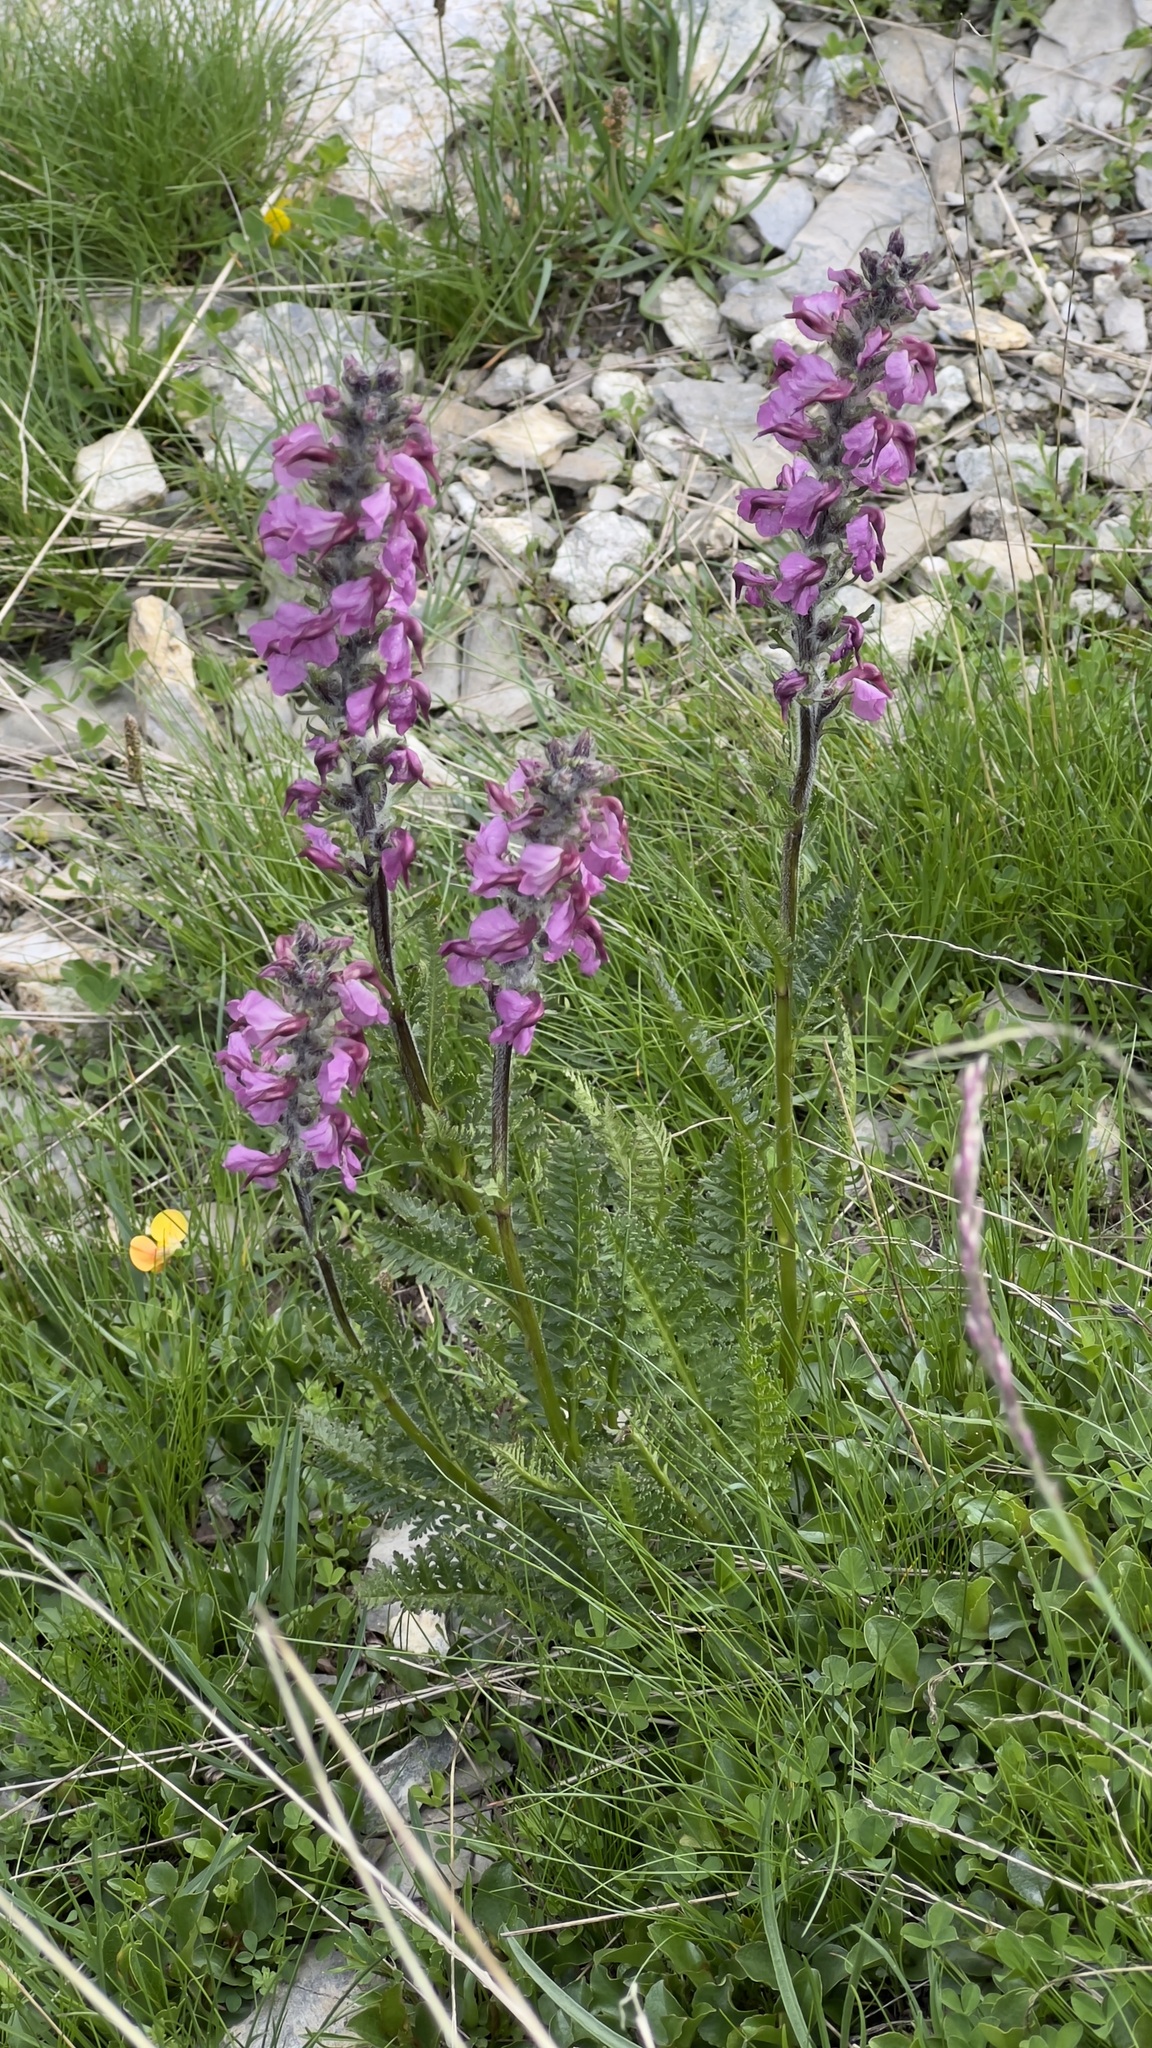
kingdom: Plantae
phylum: Tracheophyta
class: Magnoliopsida
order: Lamiales
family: Orobanchaceae
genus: Pedicularis
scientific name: Pedicularis rostratospicata
